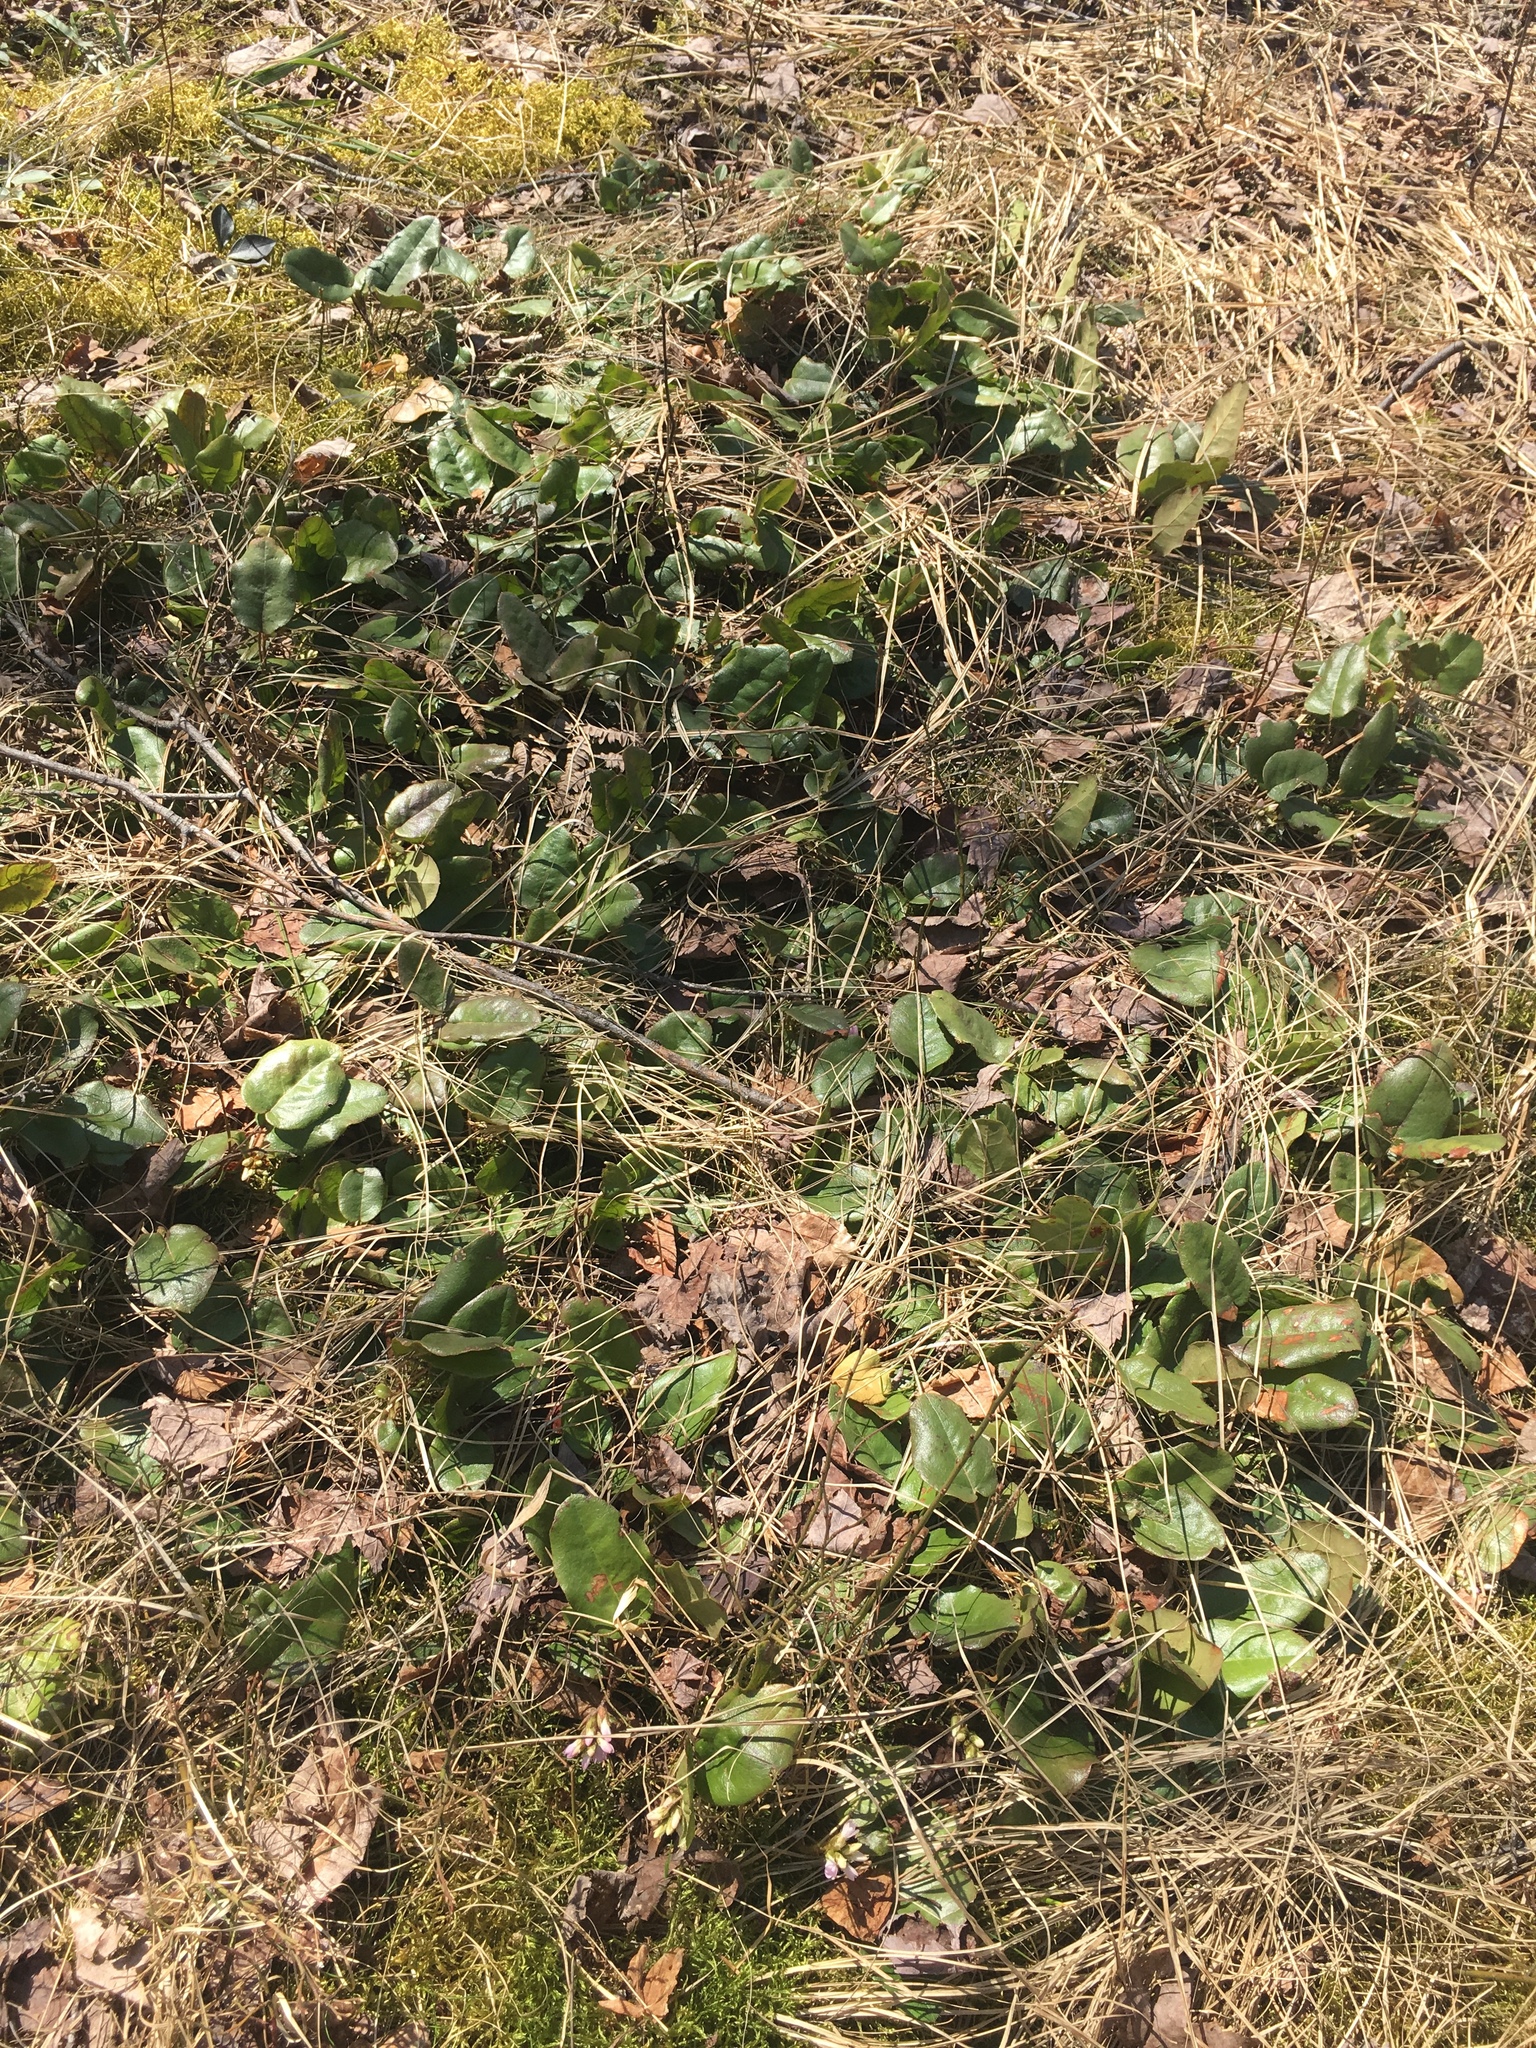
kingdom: Plantae
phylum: Tracheophyta
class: Magnoliopsida
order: Ericales
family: Ericaceae
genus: Epigaea
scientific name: Epigaea repens
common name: Gravelroot
